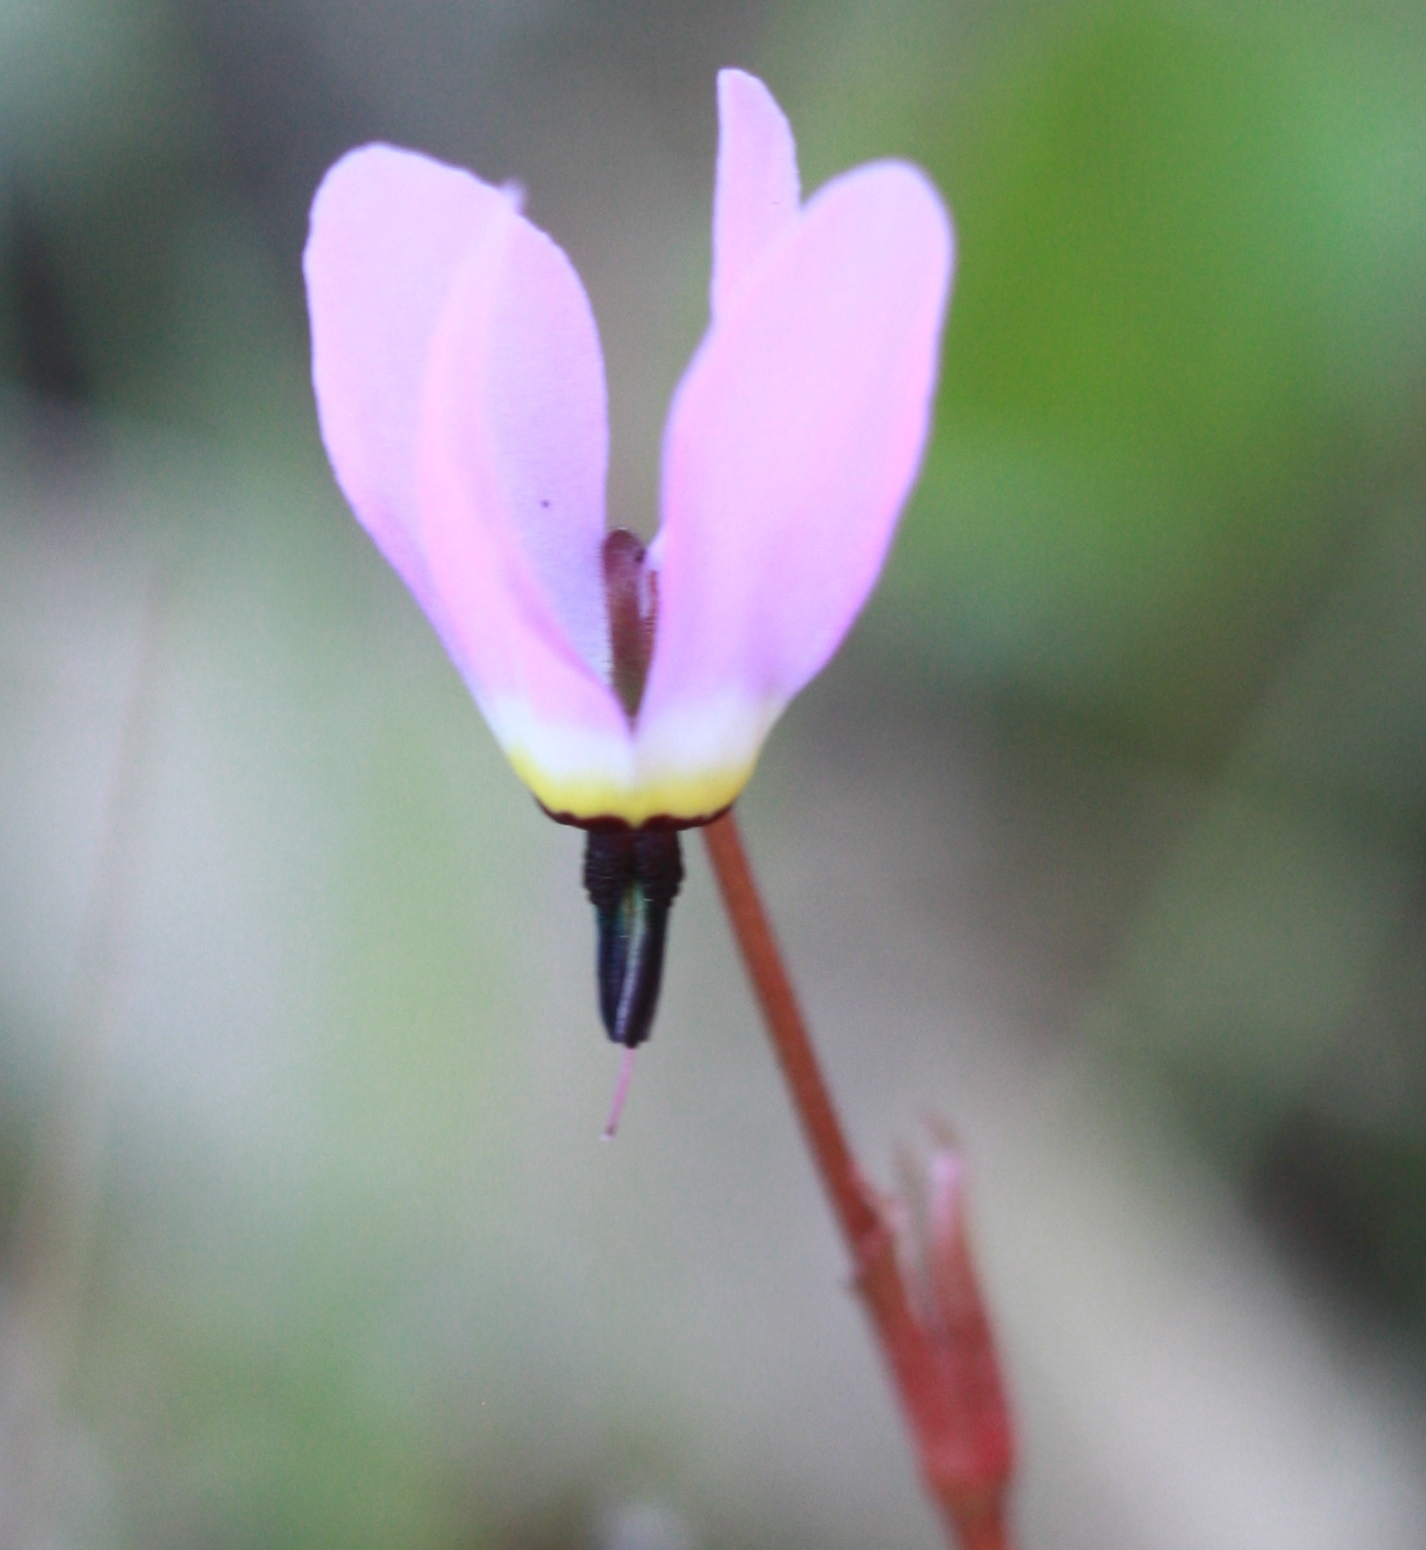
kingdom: Plantae
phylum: Tracheophyta
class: Magnoliopsida
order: Ericales
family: Primulaceae
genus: Dodecatheon
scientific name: Dodecatheon hendersonii
